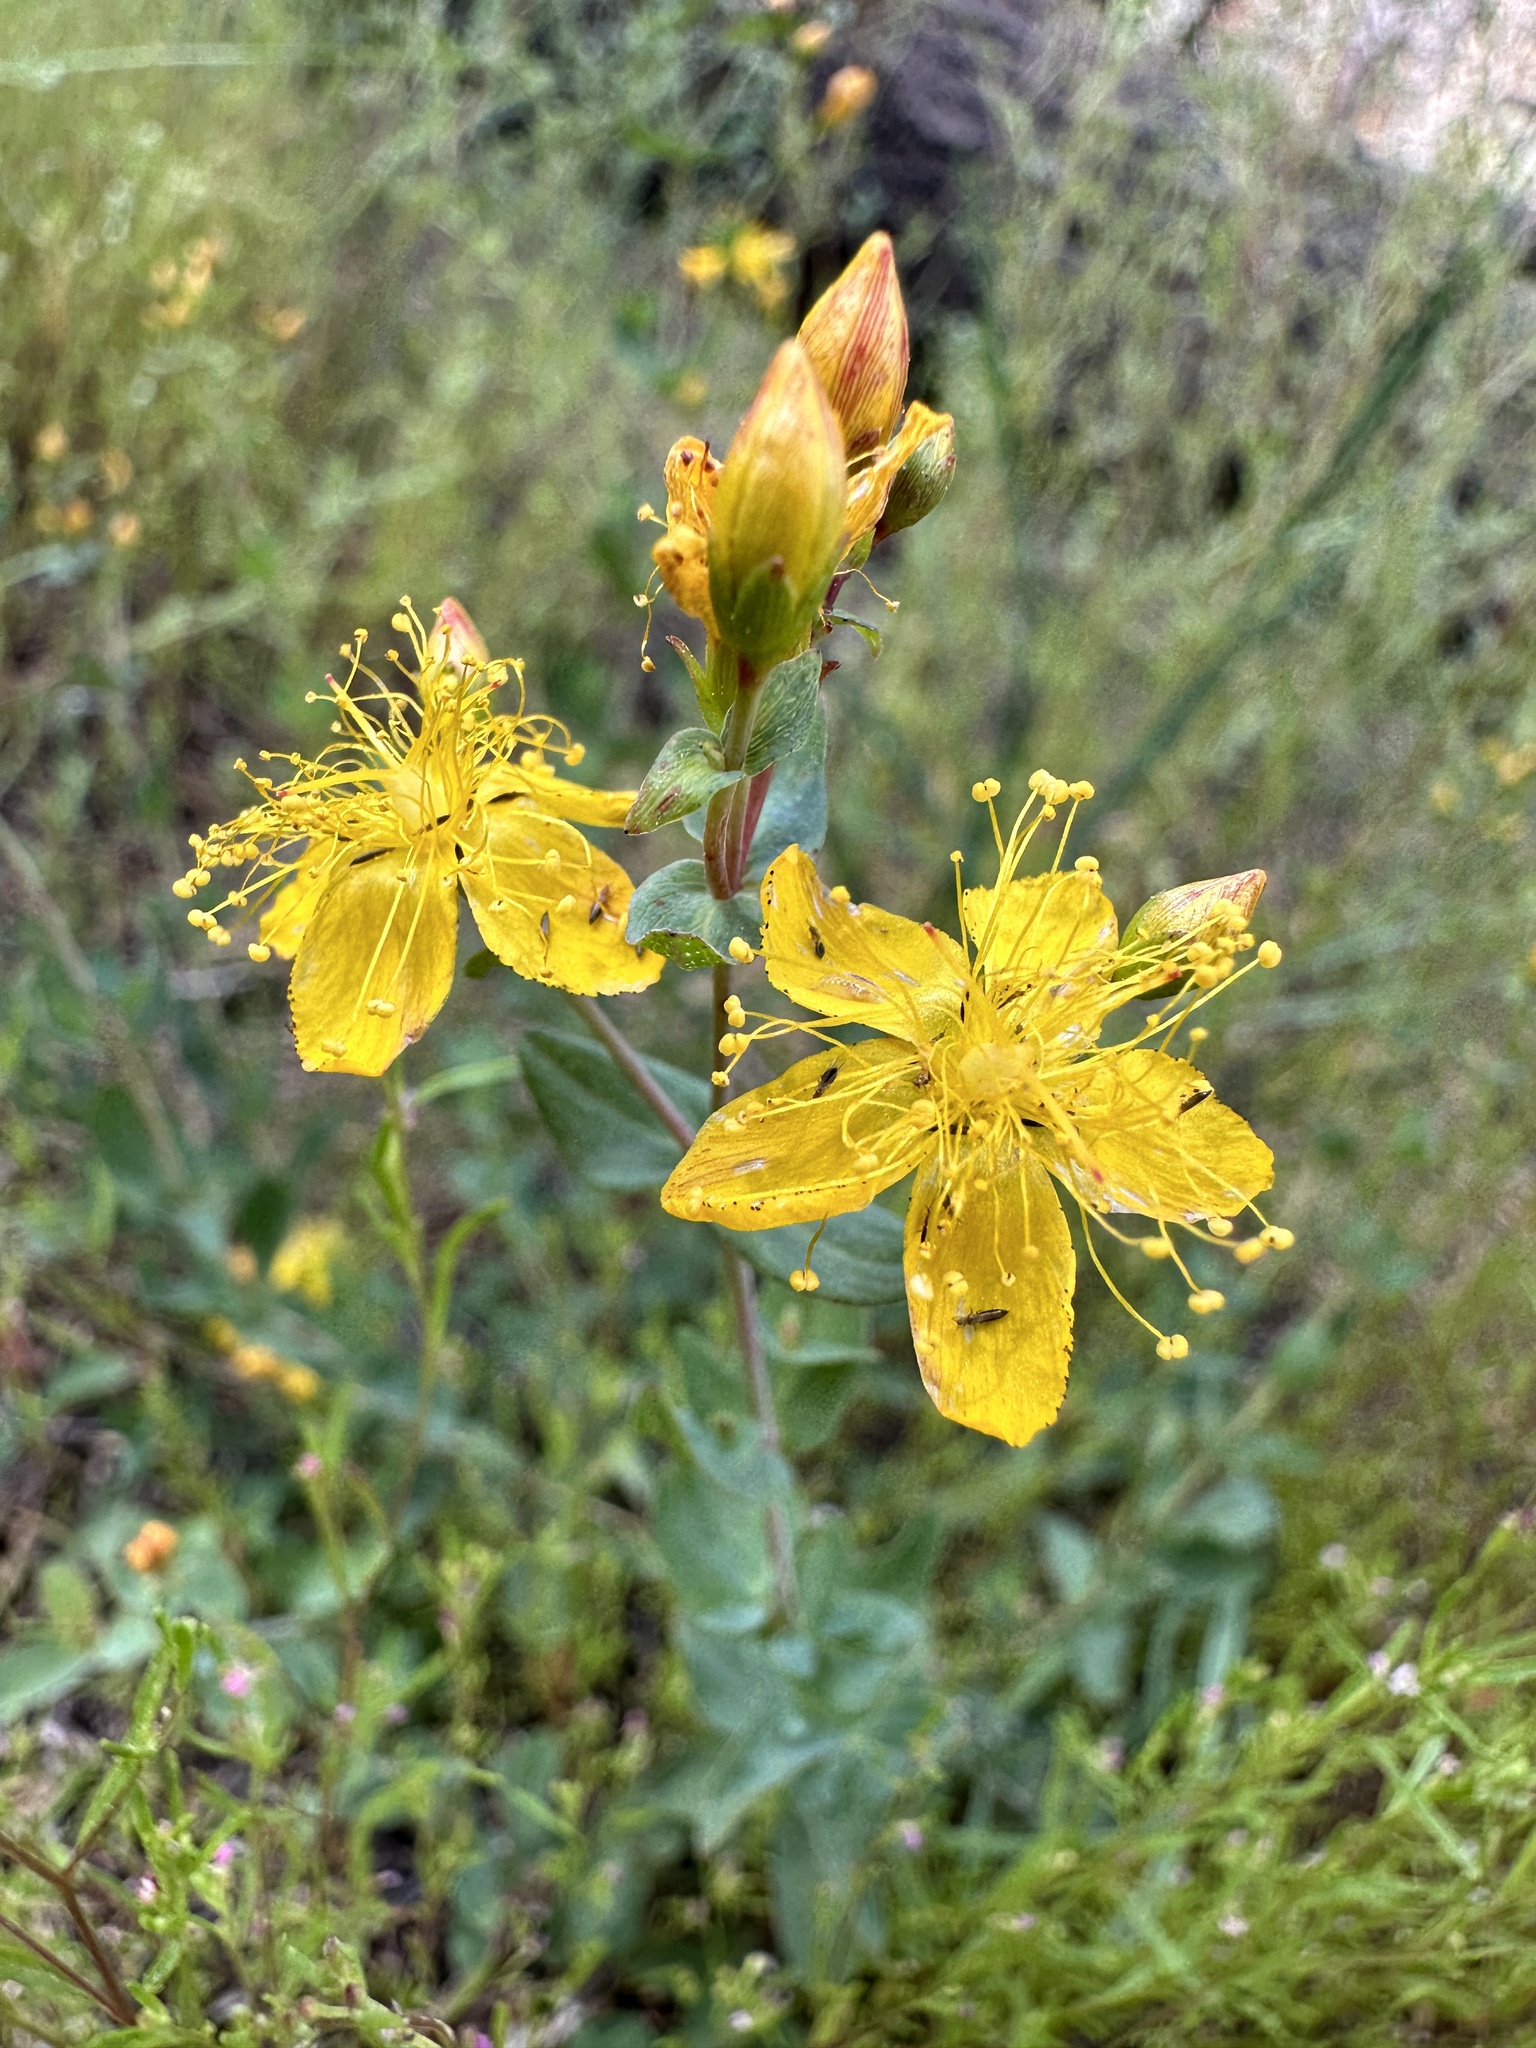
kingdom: Plantae
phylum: Tracheophyta
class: Magnoliopsida
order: Malpighiales
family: Hypericaceae
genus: Hypericum
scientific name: Hypericum scouleri
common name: Scouler's st. john's-wort
